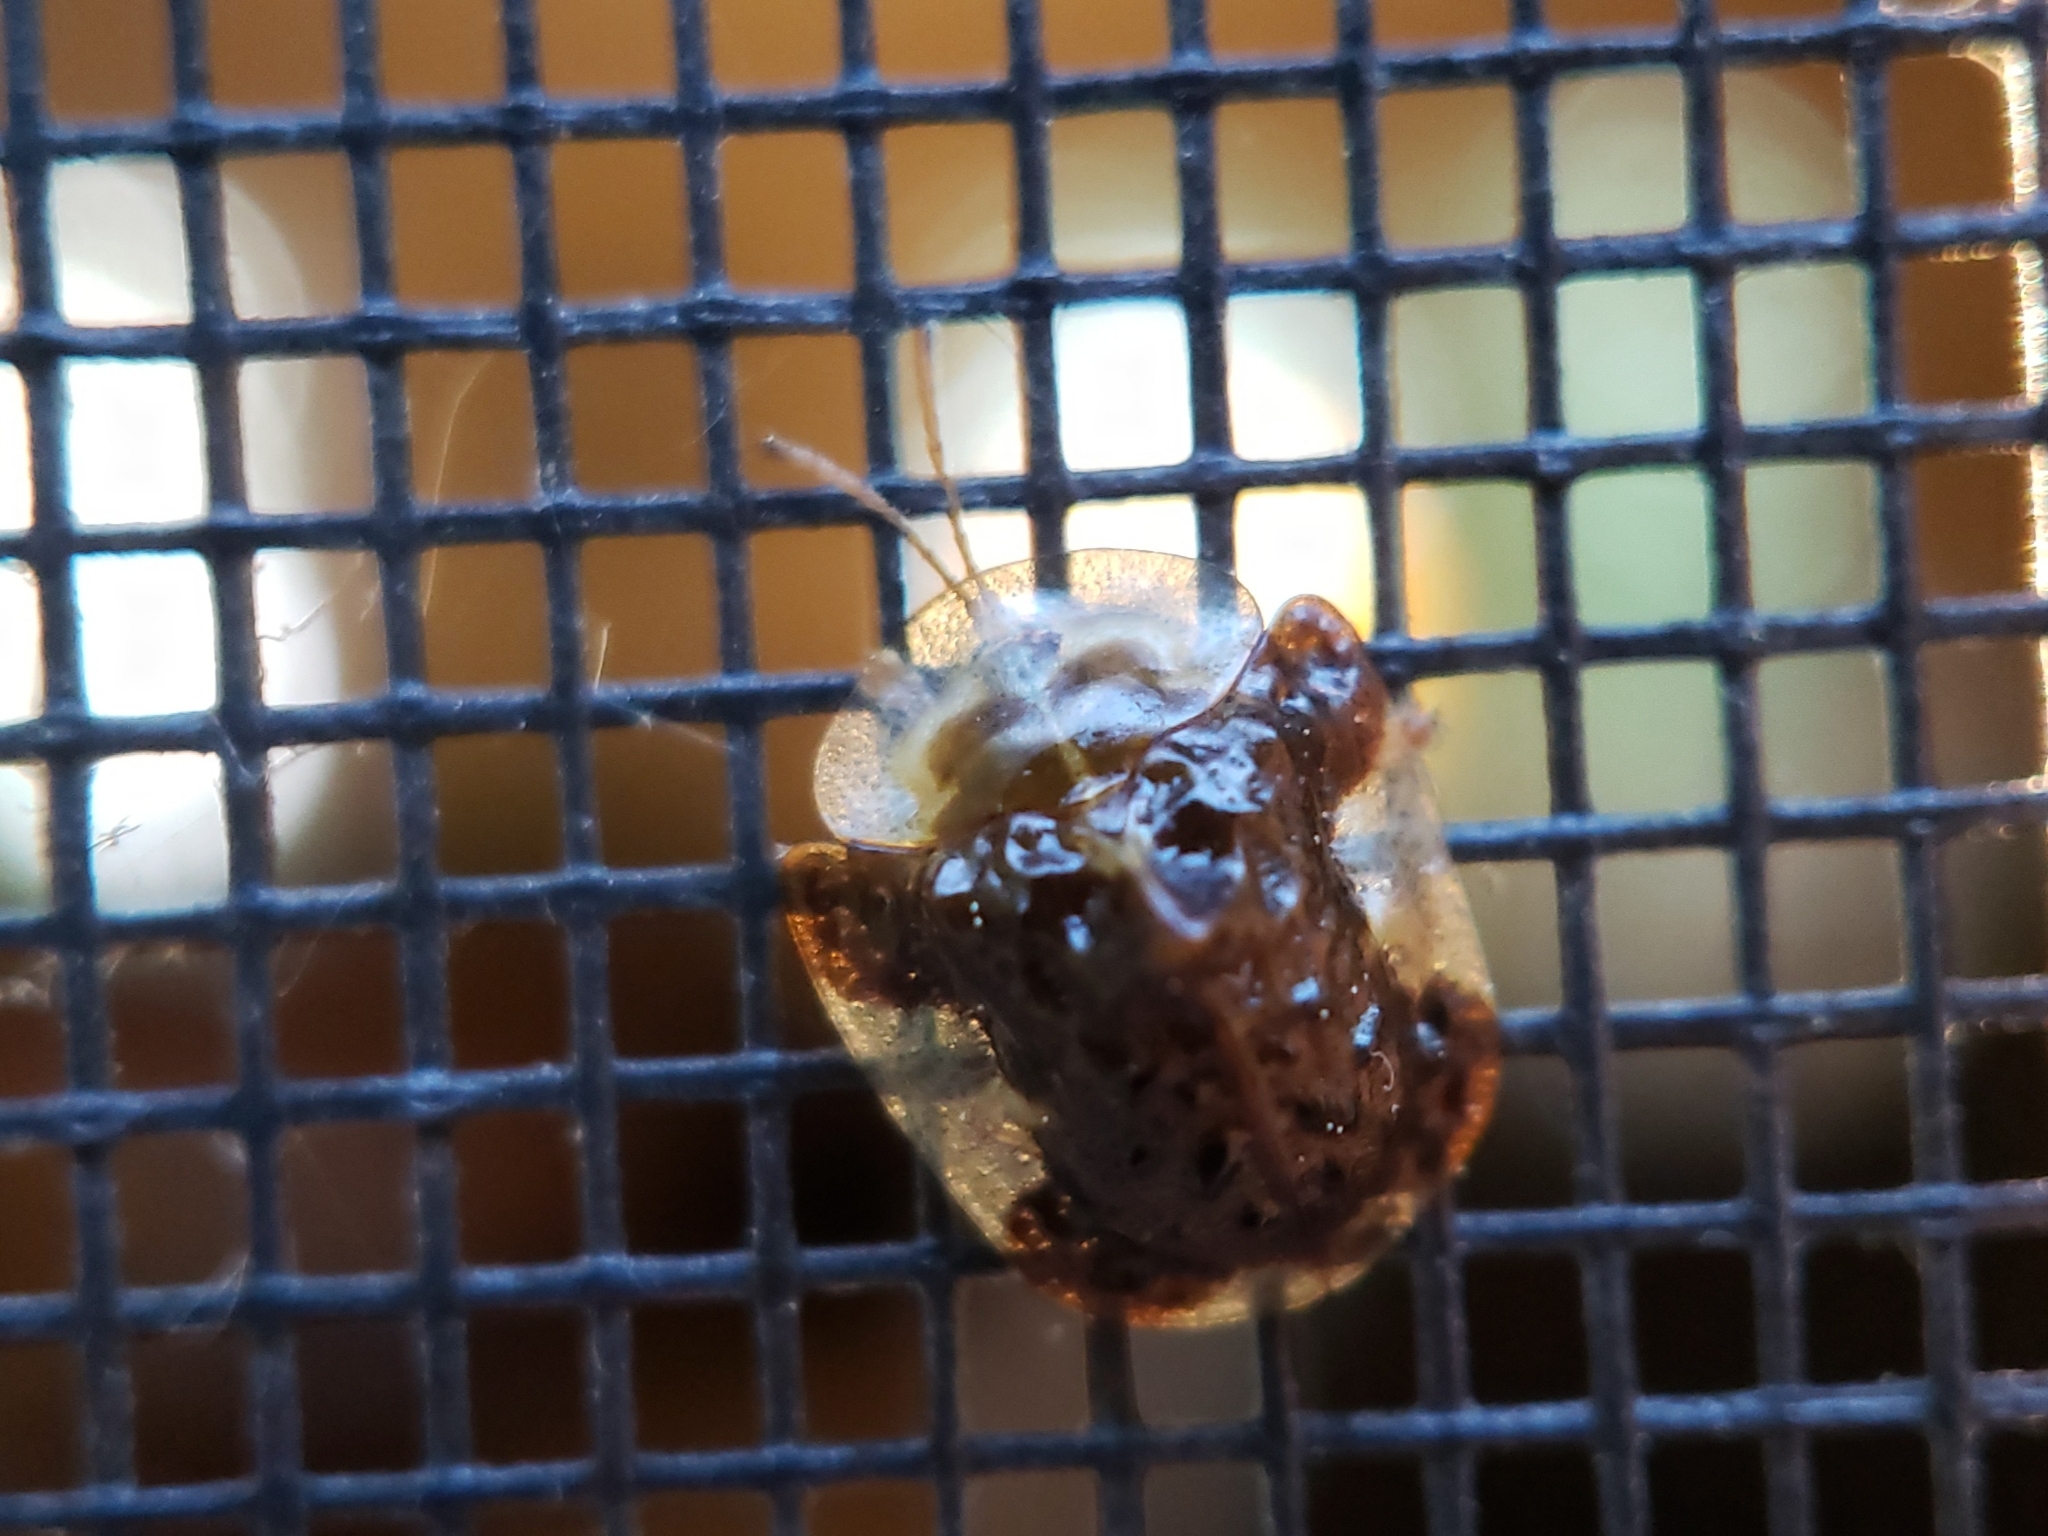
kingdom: Animalia
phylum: Arthropoda
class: Insecta
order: Coleoptera
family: Chrysomelidae
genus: Helocassis
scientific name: Helocassis clavata
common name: Clavate tortoise beetle
